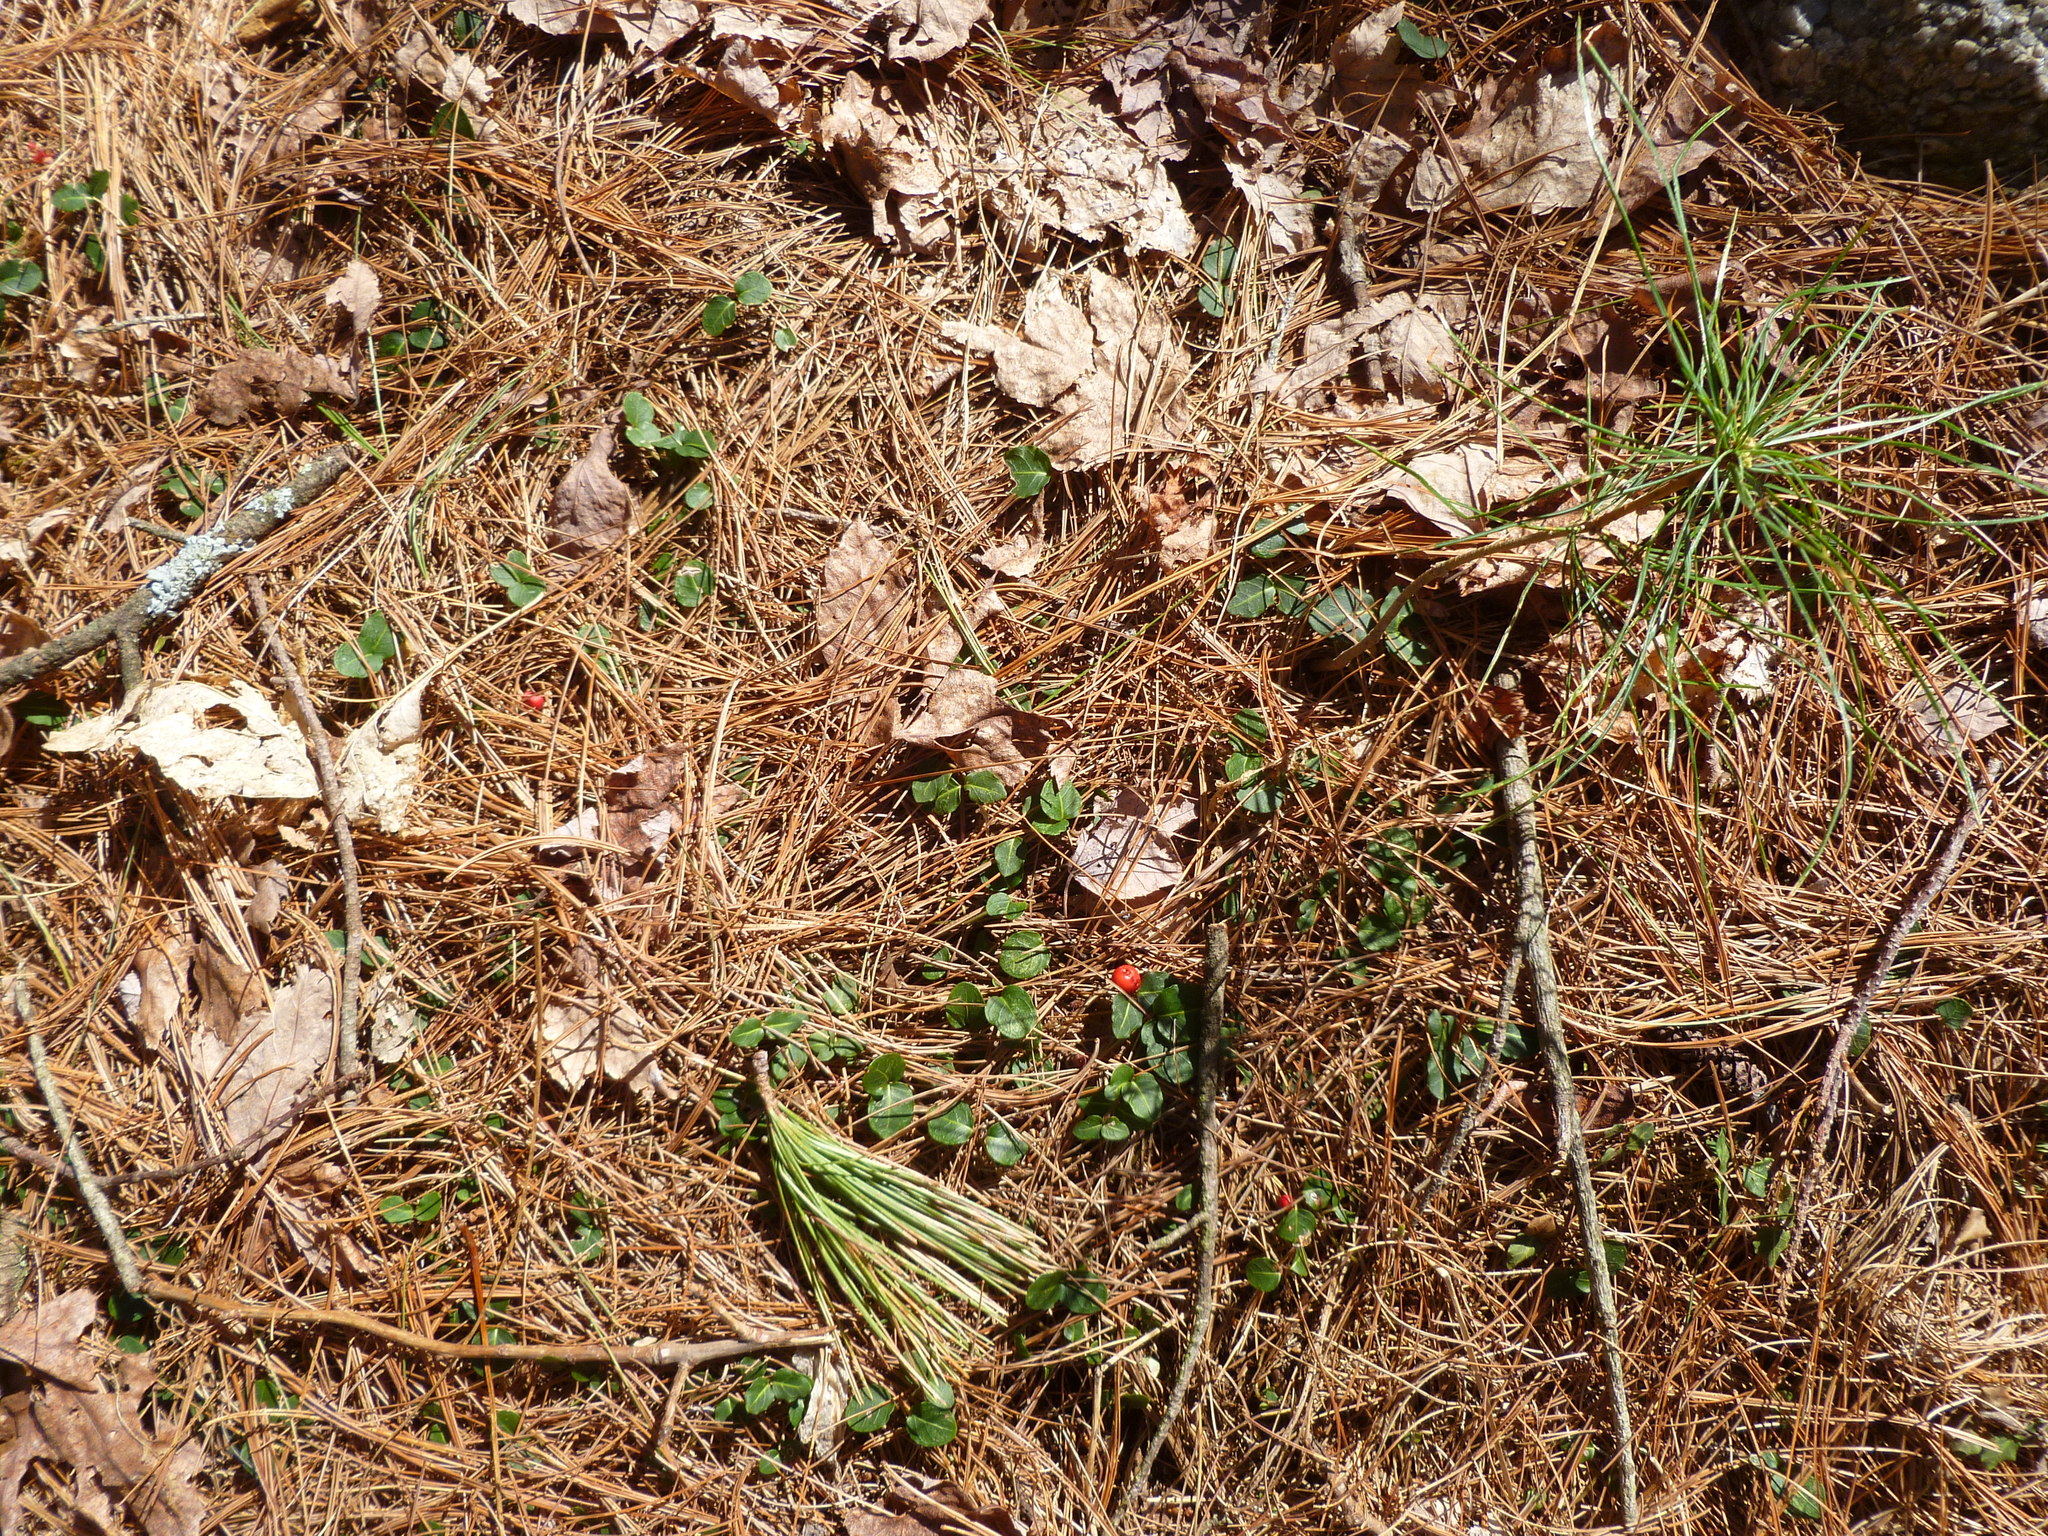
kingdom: Plantae
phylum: Tracheophyta
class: Magnoliopsida
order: Gentianales
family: Rubiaceae
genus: Mitchella
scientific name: Mitchella repens
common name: Partridge-berry
